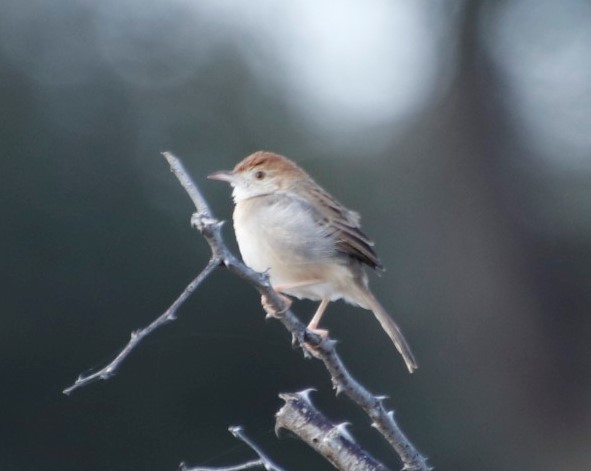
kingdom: Animalia
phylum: Chordata
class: Aves
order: Passeriformes
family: Cisticolidae
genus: Cisticola
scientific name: Cisticola chiniana
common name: Rattling cisticola
